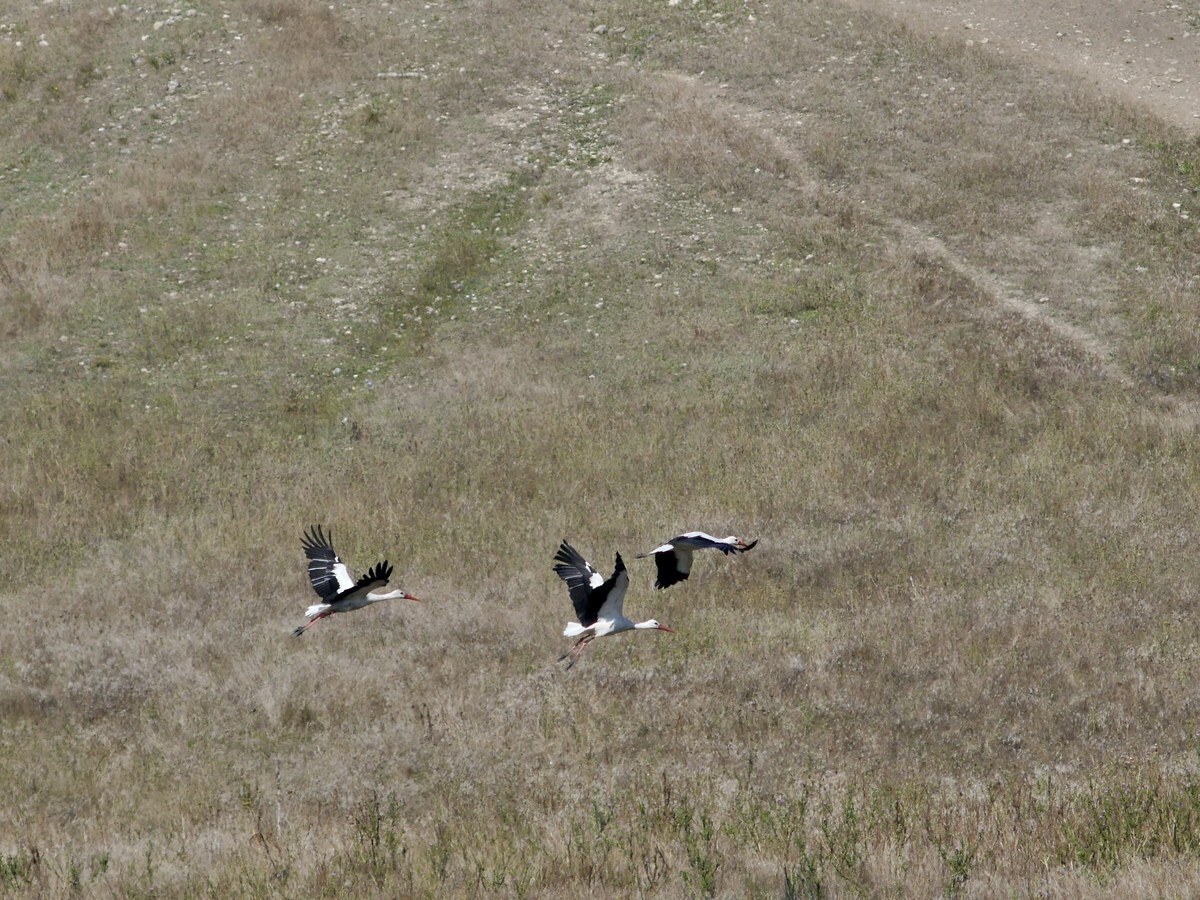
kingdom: Animalia
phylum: Chordata
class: Aves
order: Ciconiiformes
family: Ciconiidae
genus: Ciconia
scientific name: Ciconia ciconia
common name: White stork
